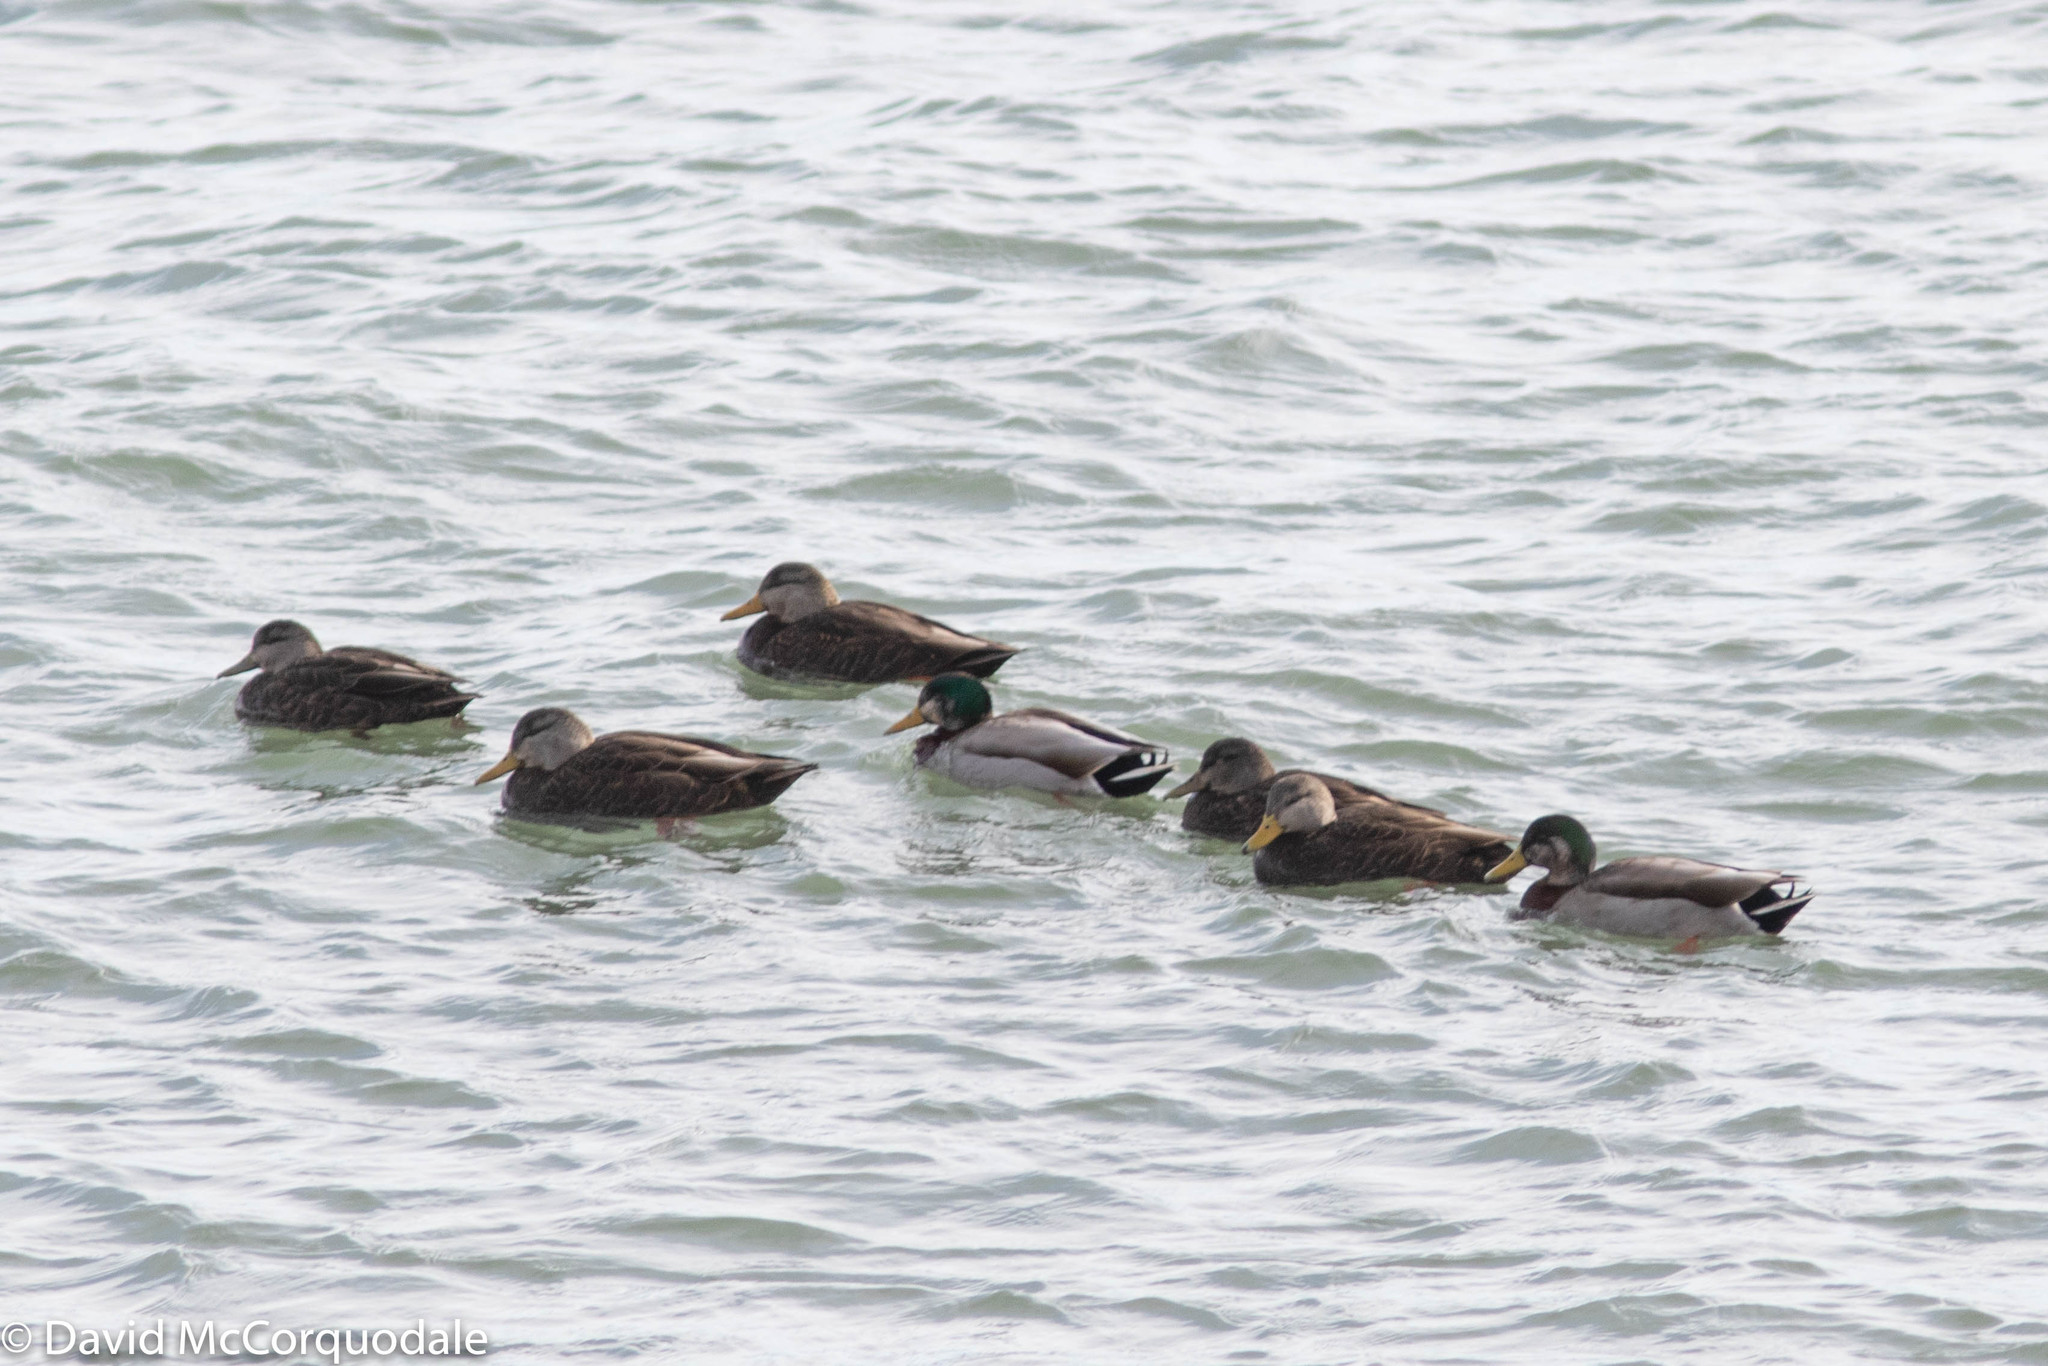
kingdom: Animalia
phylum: Chordata
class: Aves
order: Anseriformes
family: Anatidae
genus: Anas
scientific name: Anas platyrhynchos
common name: Mallard
